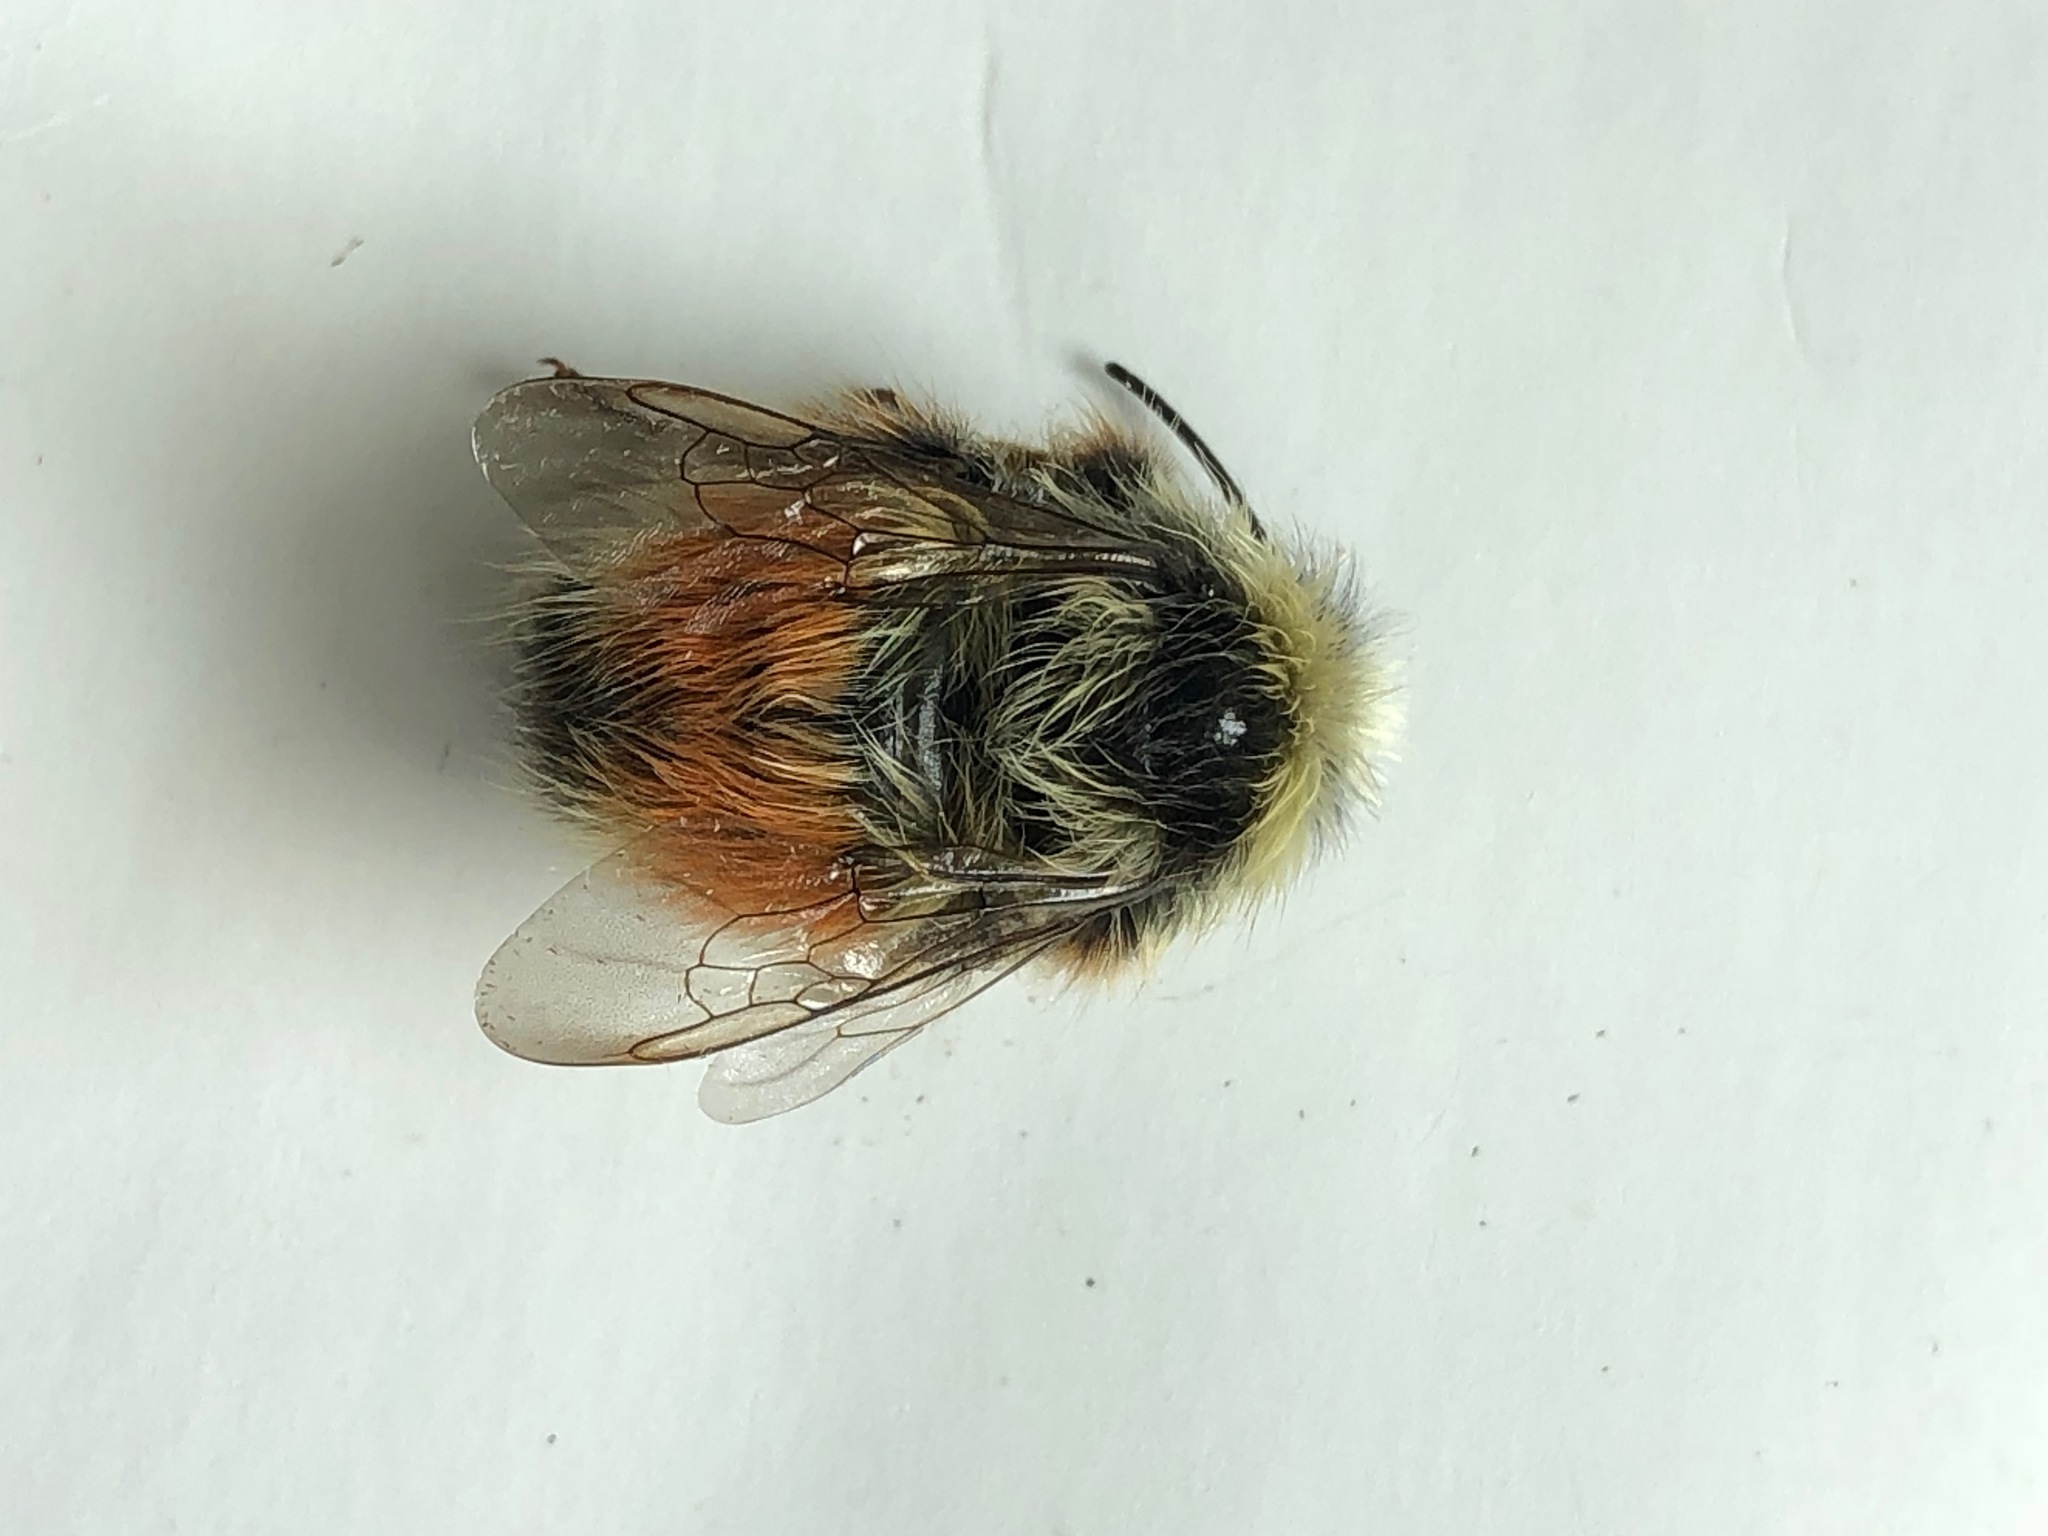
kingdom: Animalia
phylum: Arthropoda
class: Insecta
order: Hymenoptera
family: Apidae
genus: Bombus
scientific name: Bombus sylvicola
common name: Forest bumble bee
